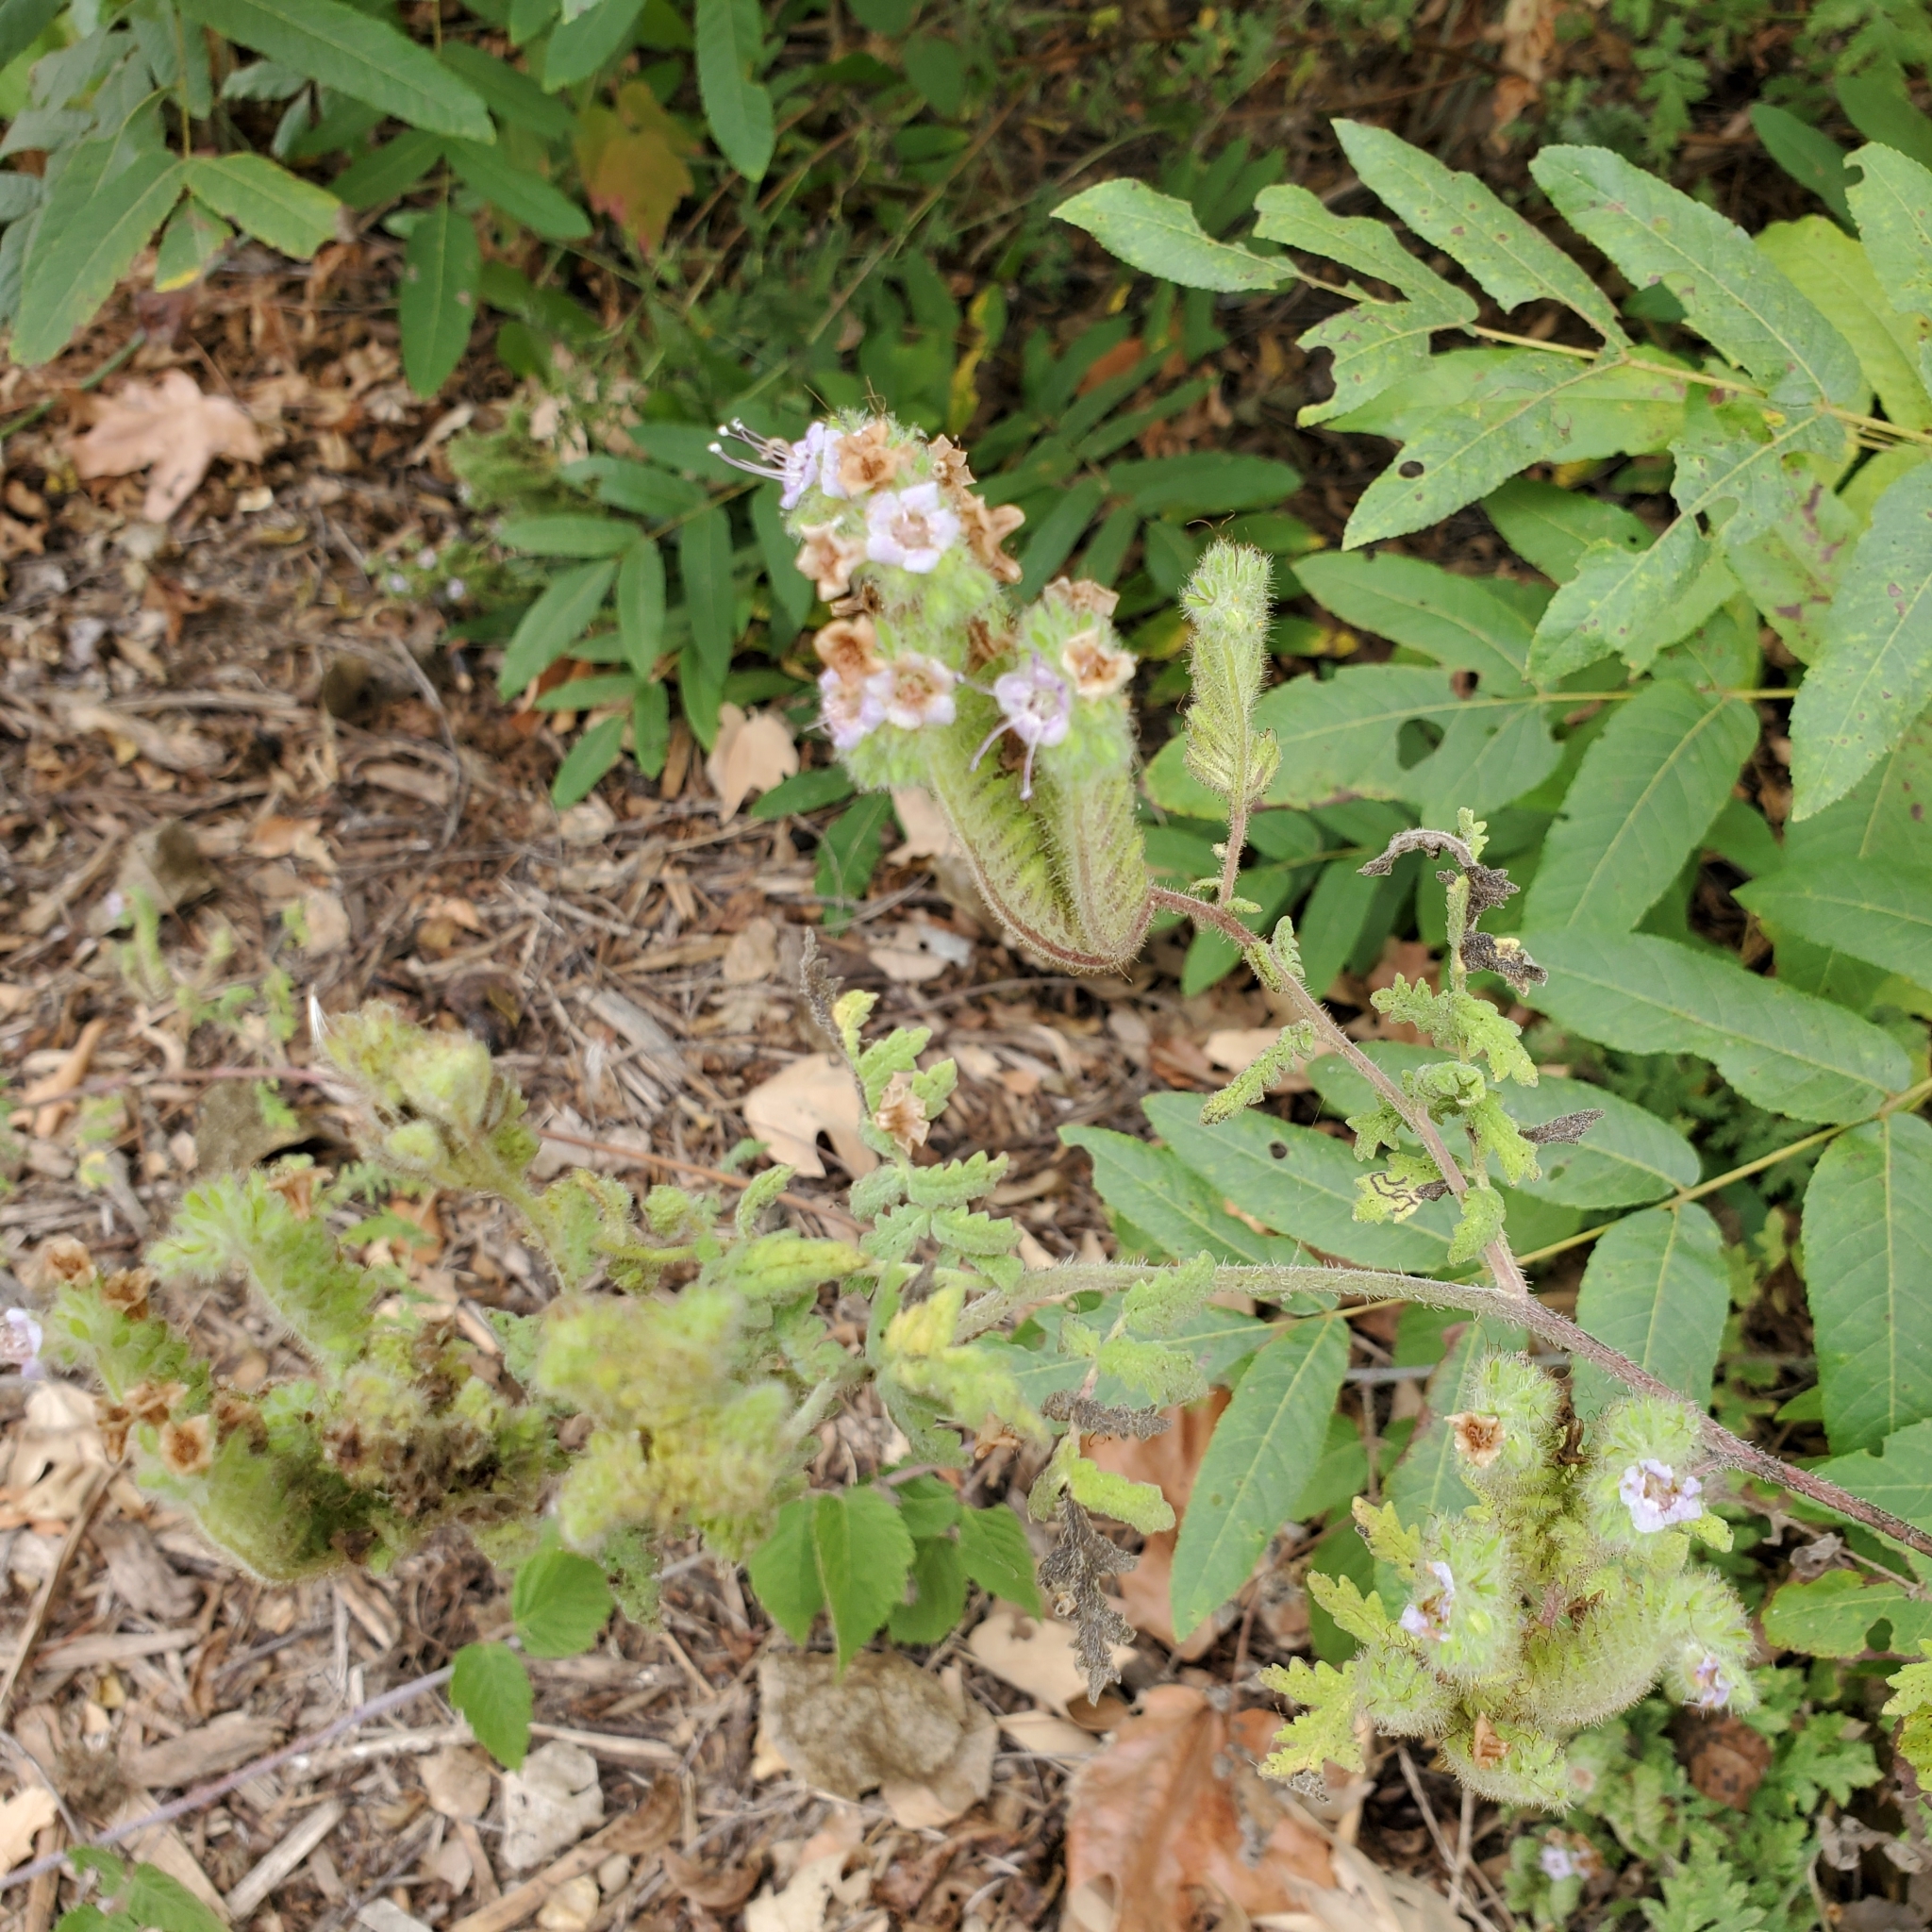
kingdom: Plantae
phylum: Tracheophyta
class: Magnoliopsida
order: Boraginales
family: Hydrophyllaceae
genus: Phacelia
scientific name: Phacelia ramosissima
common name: Branching phacelia
